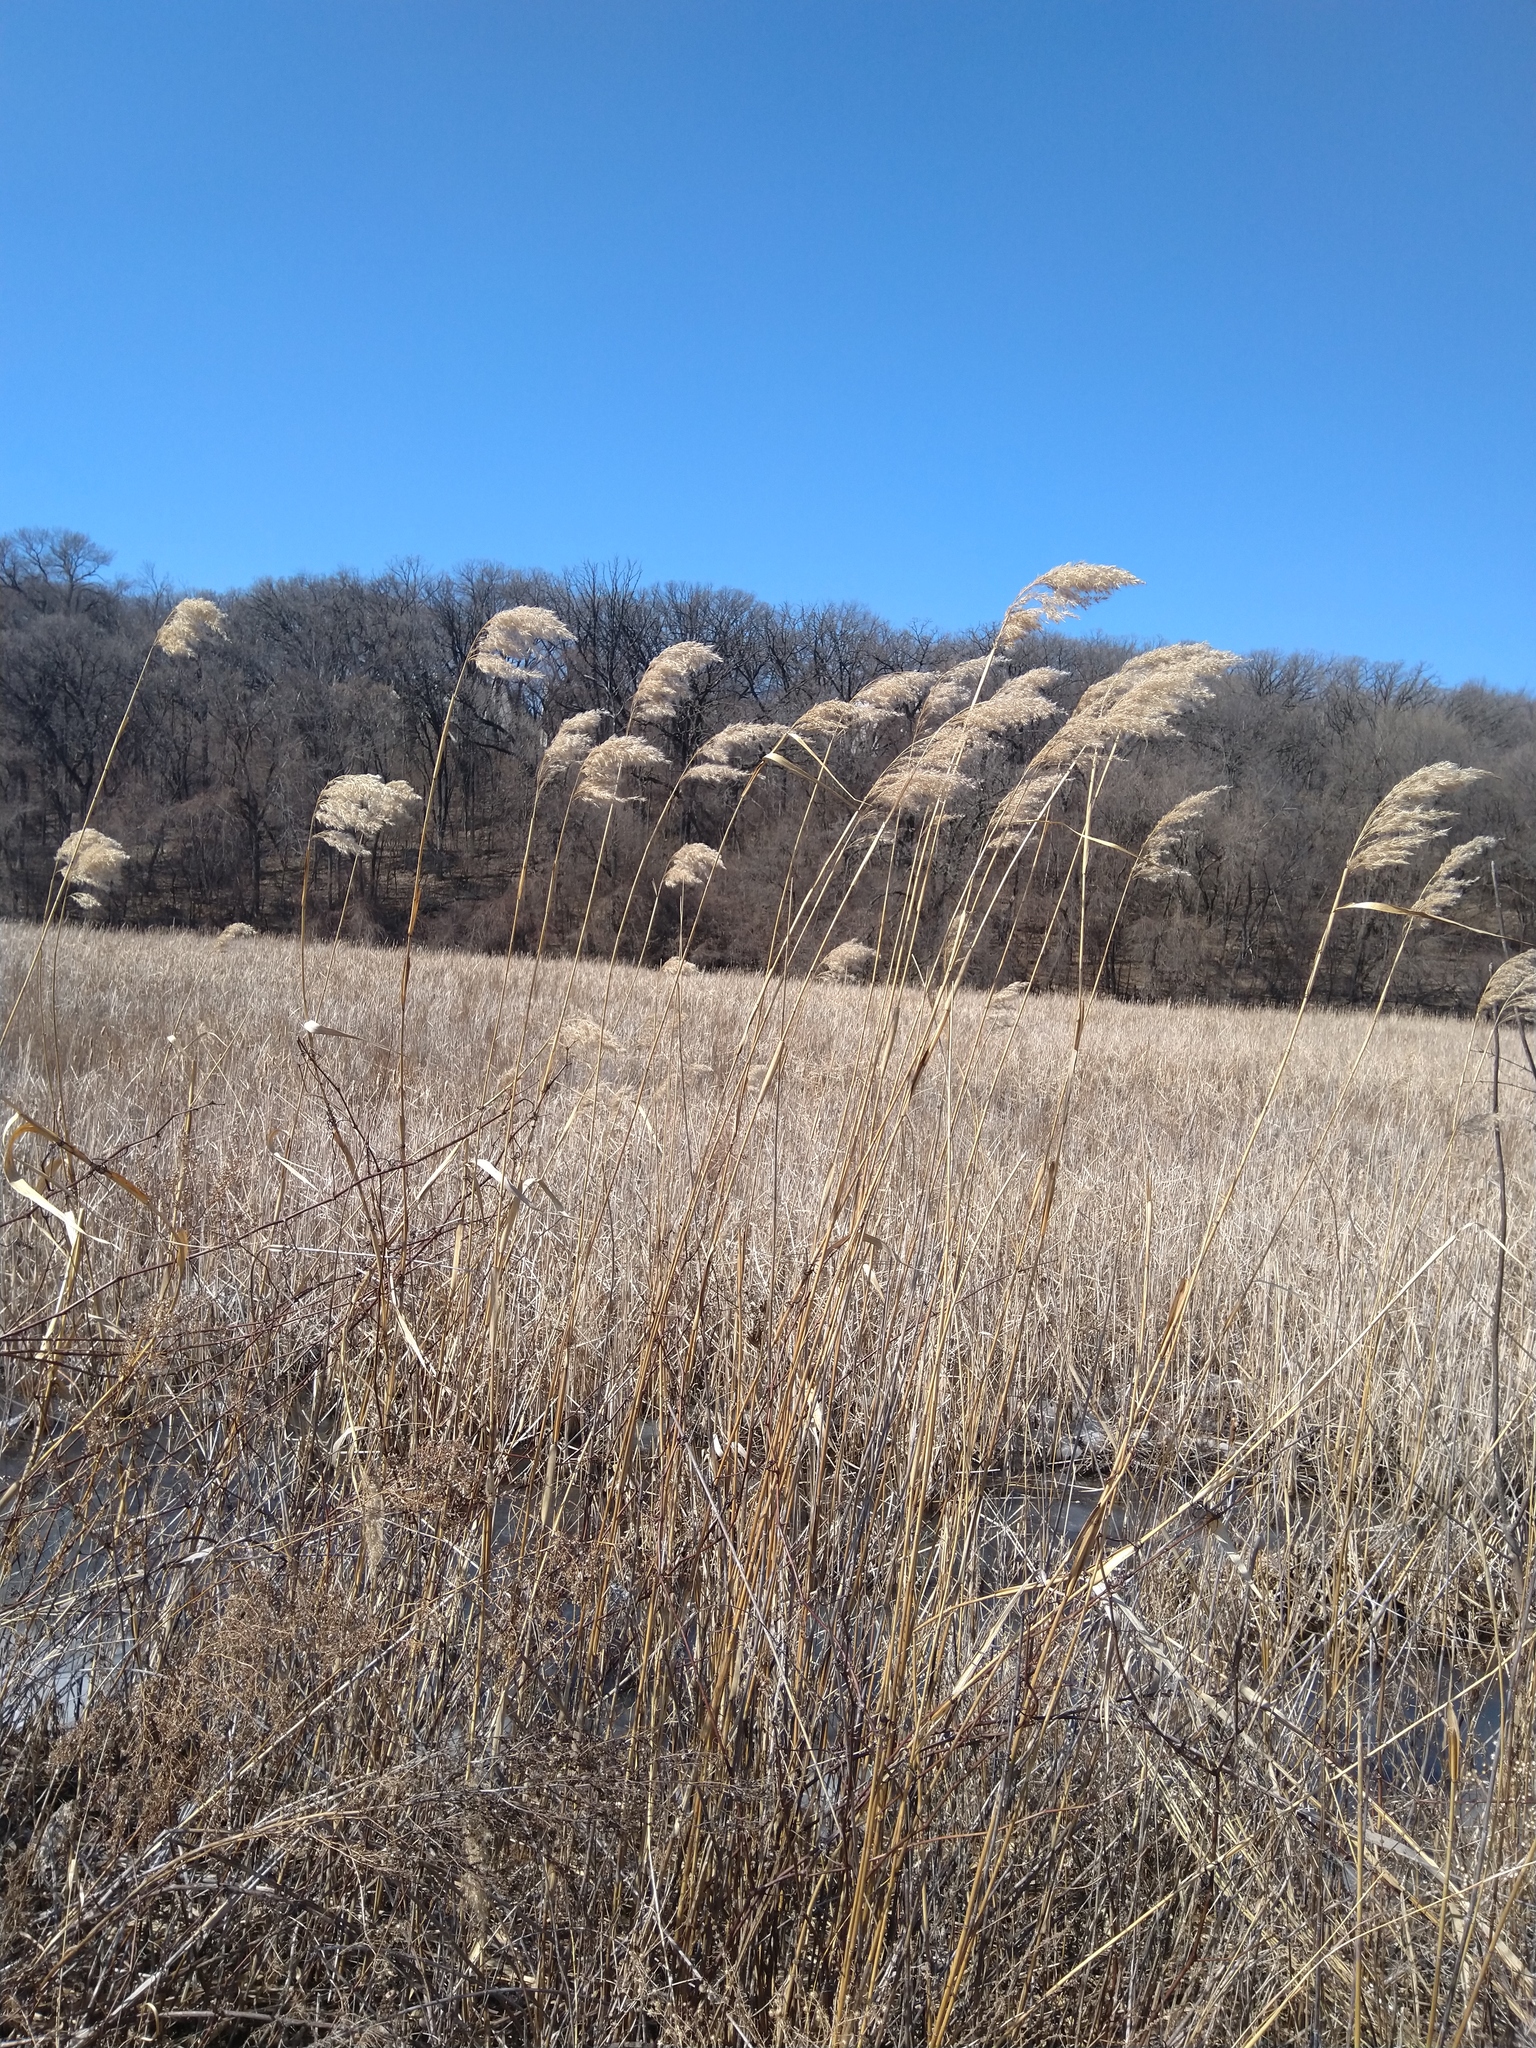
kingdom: Plantae
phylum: Tracheophyta
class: Liliopsida
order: Poales
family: Poaceae
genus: Phragmites
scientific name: Phragmites australis
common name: Common reed
